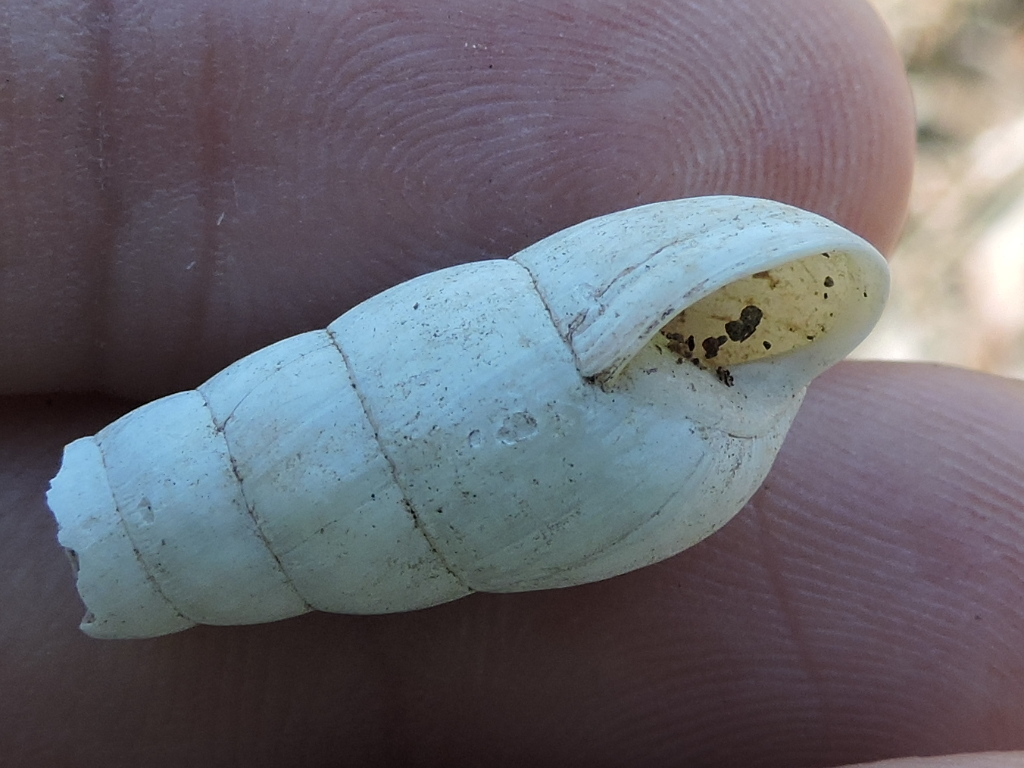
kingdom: Animalia
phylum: Mollusca
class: Gastropoda
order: Stylommatophora
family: Achatinidae
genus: Rumina
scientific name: Rumina decollata
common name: Decollate snail
